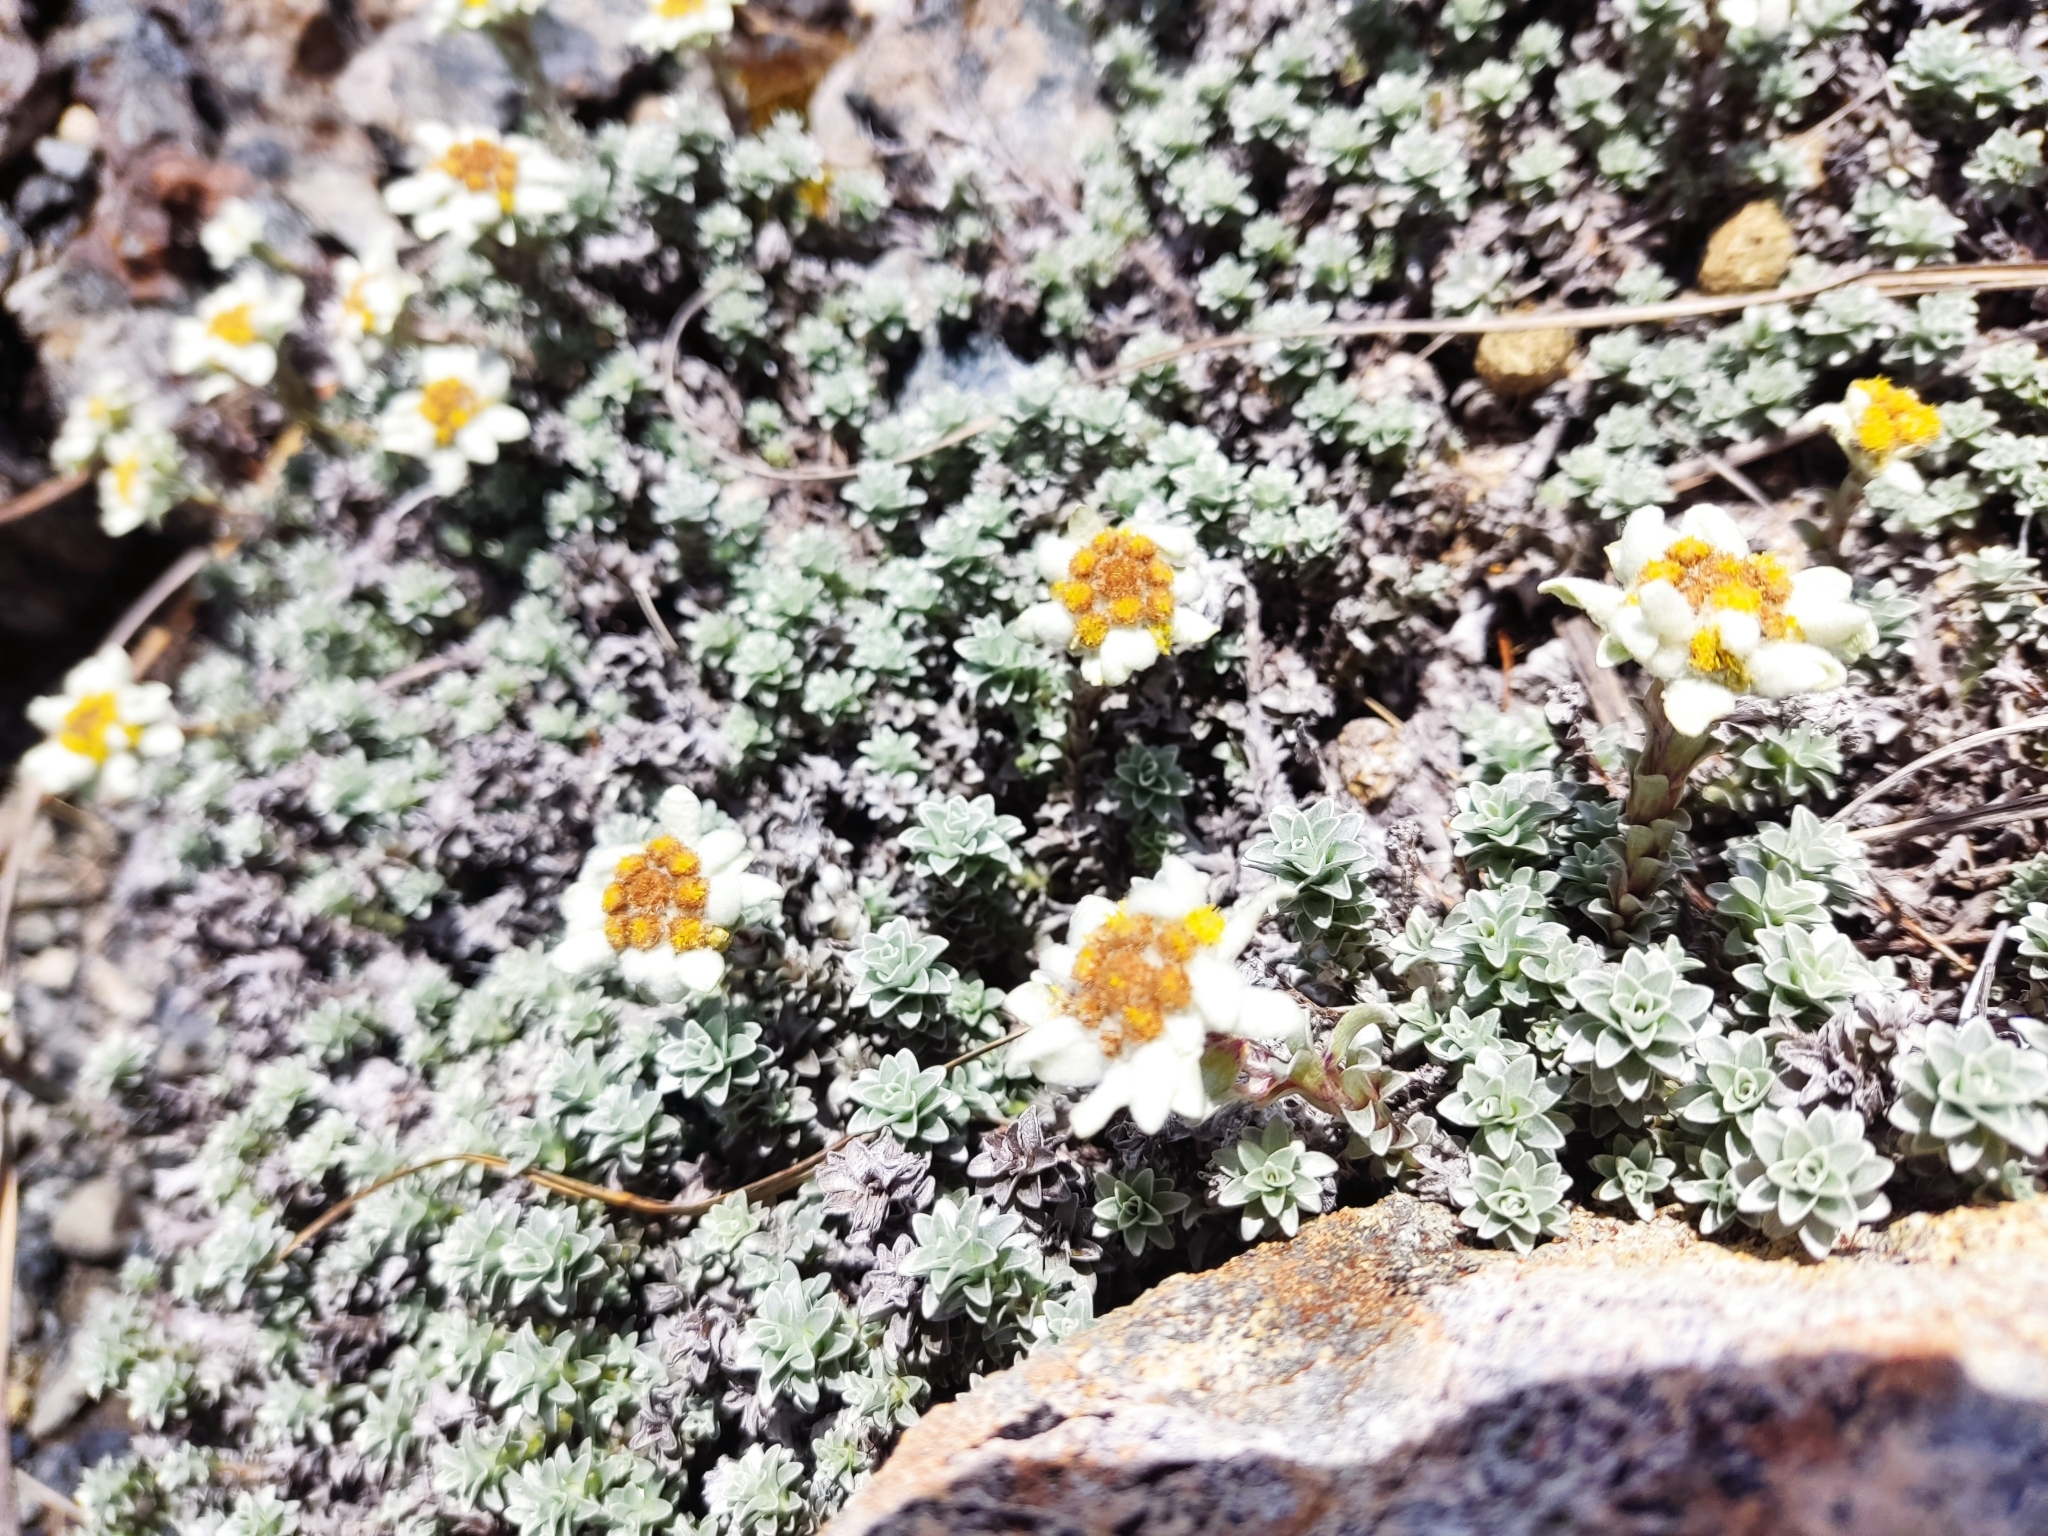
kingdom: Plantae
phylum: Tracheophyta
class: Magnoliopsida
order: Asterales
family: Asteraceae
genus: Leucogenes
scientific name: Leucogenes grandiceps
